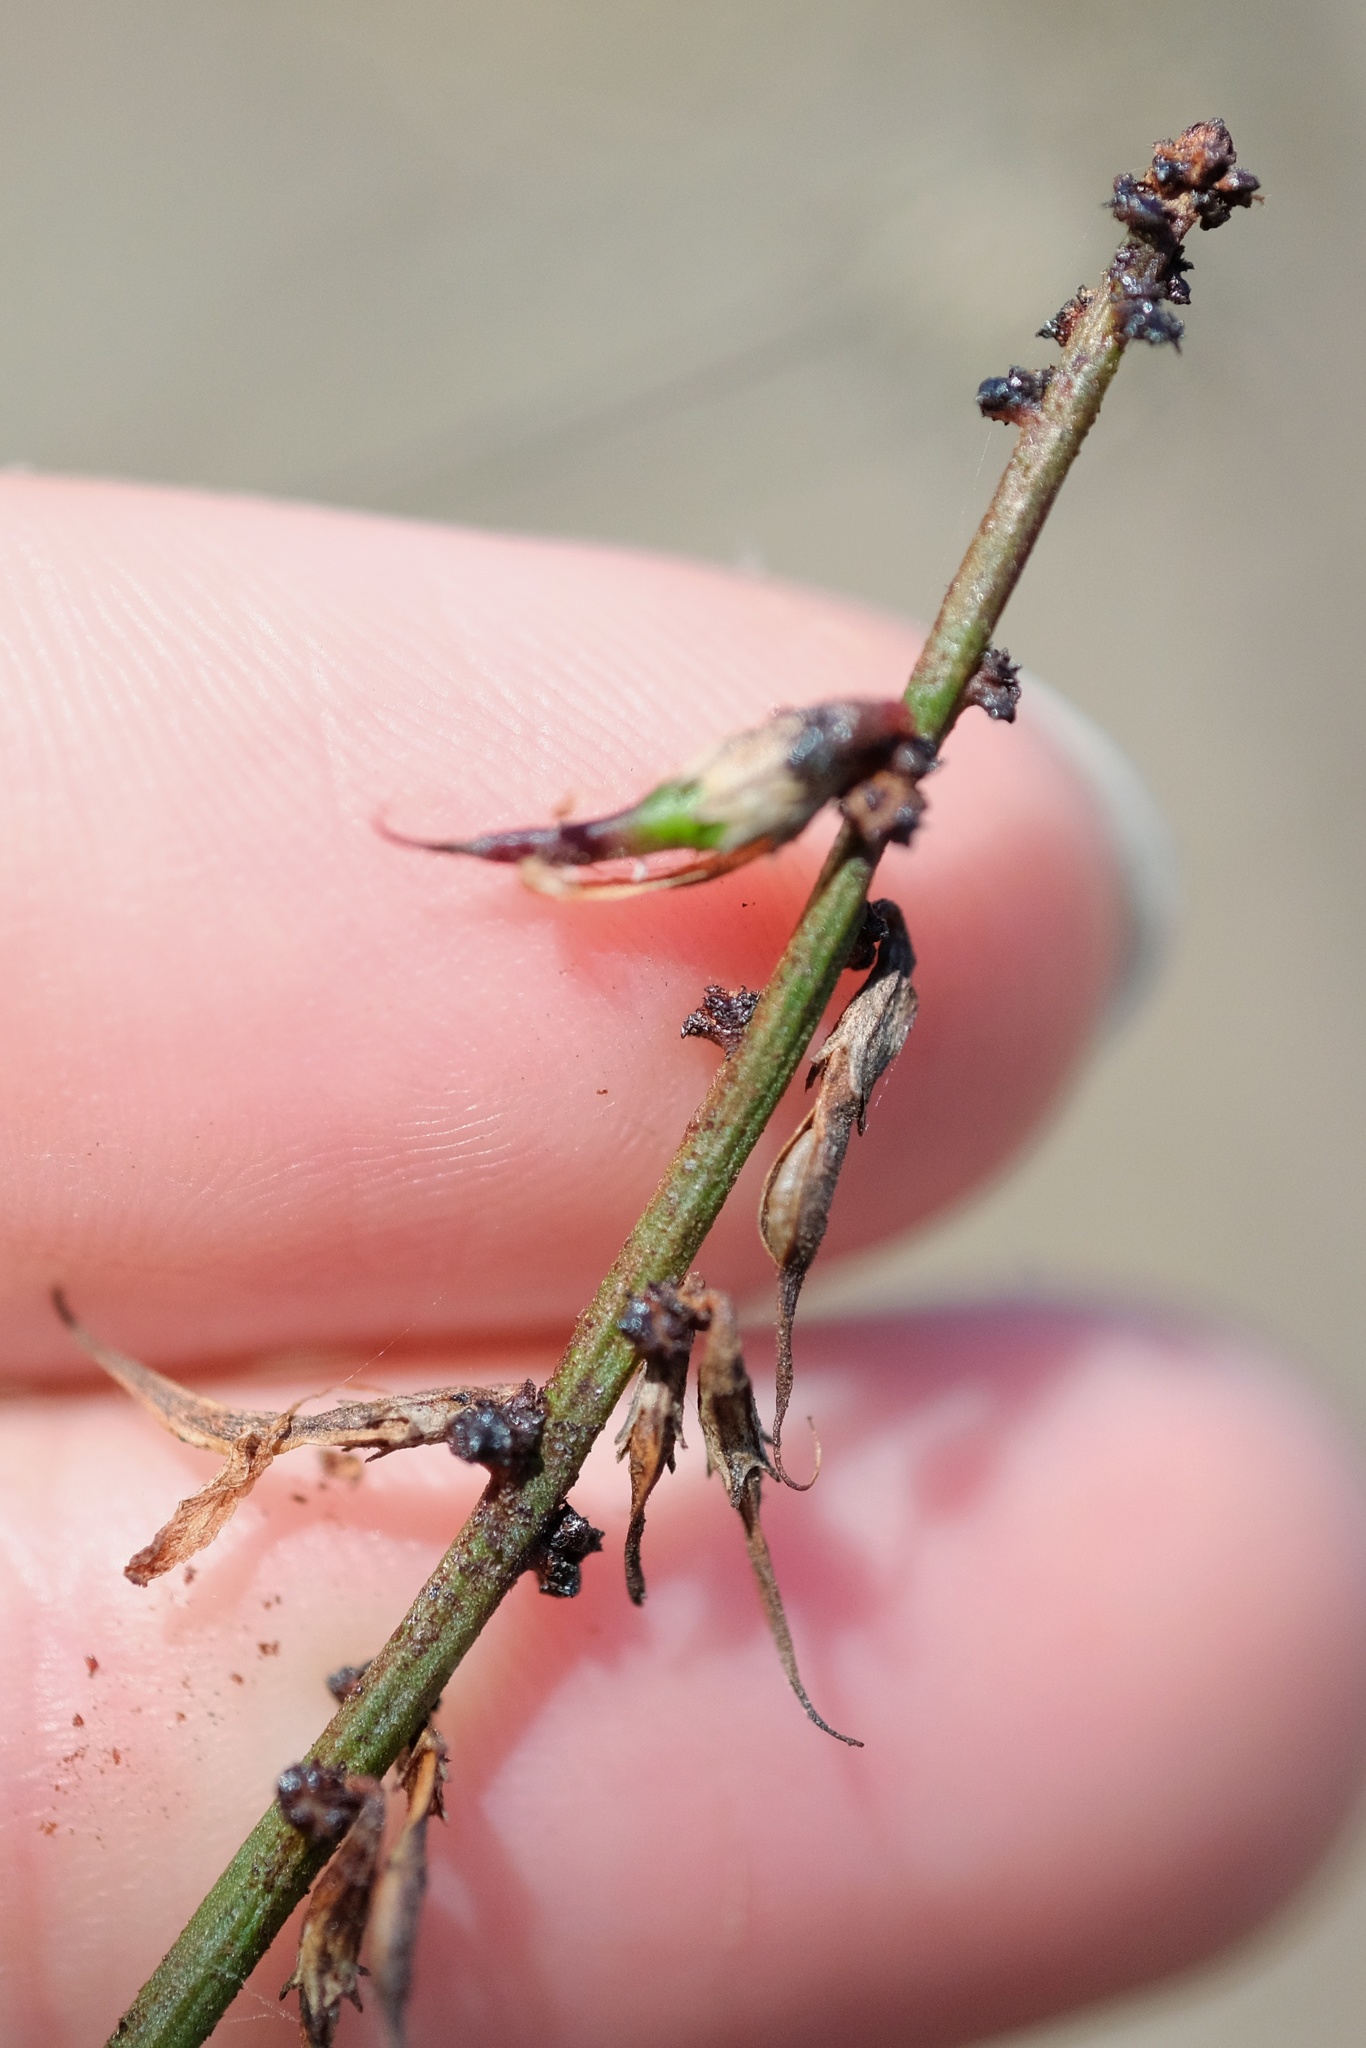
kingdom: Plantae
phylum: Tracheophyta
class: Magnoliopsida
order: Fabales
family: Fabaceae
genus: Acmispon
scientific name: Acmispon glaber
